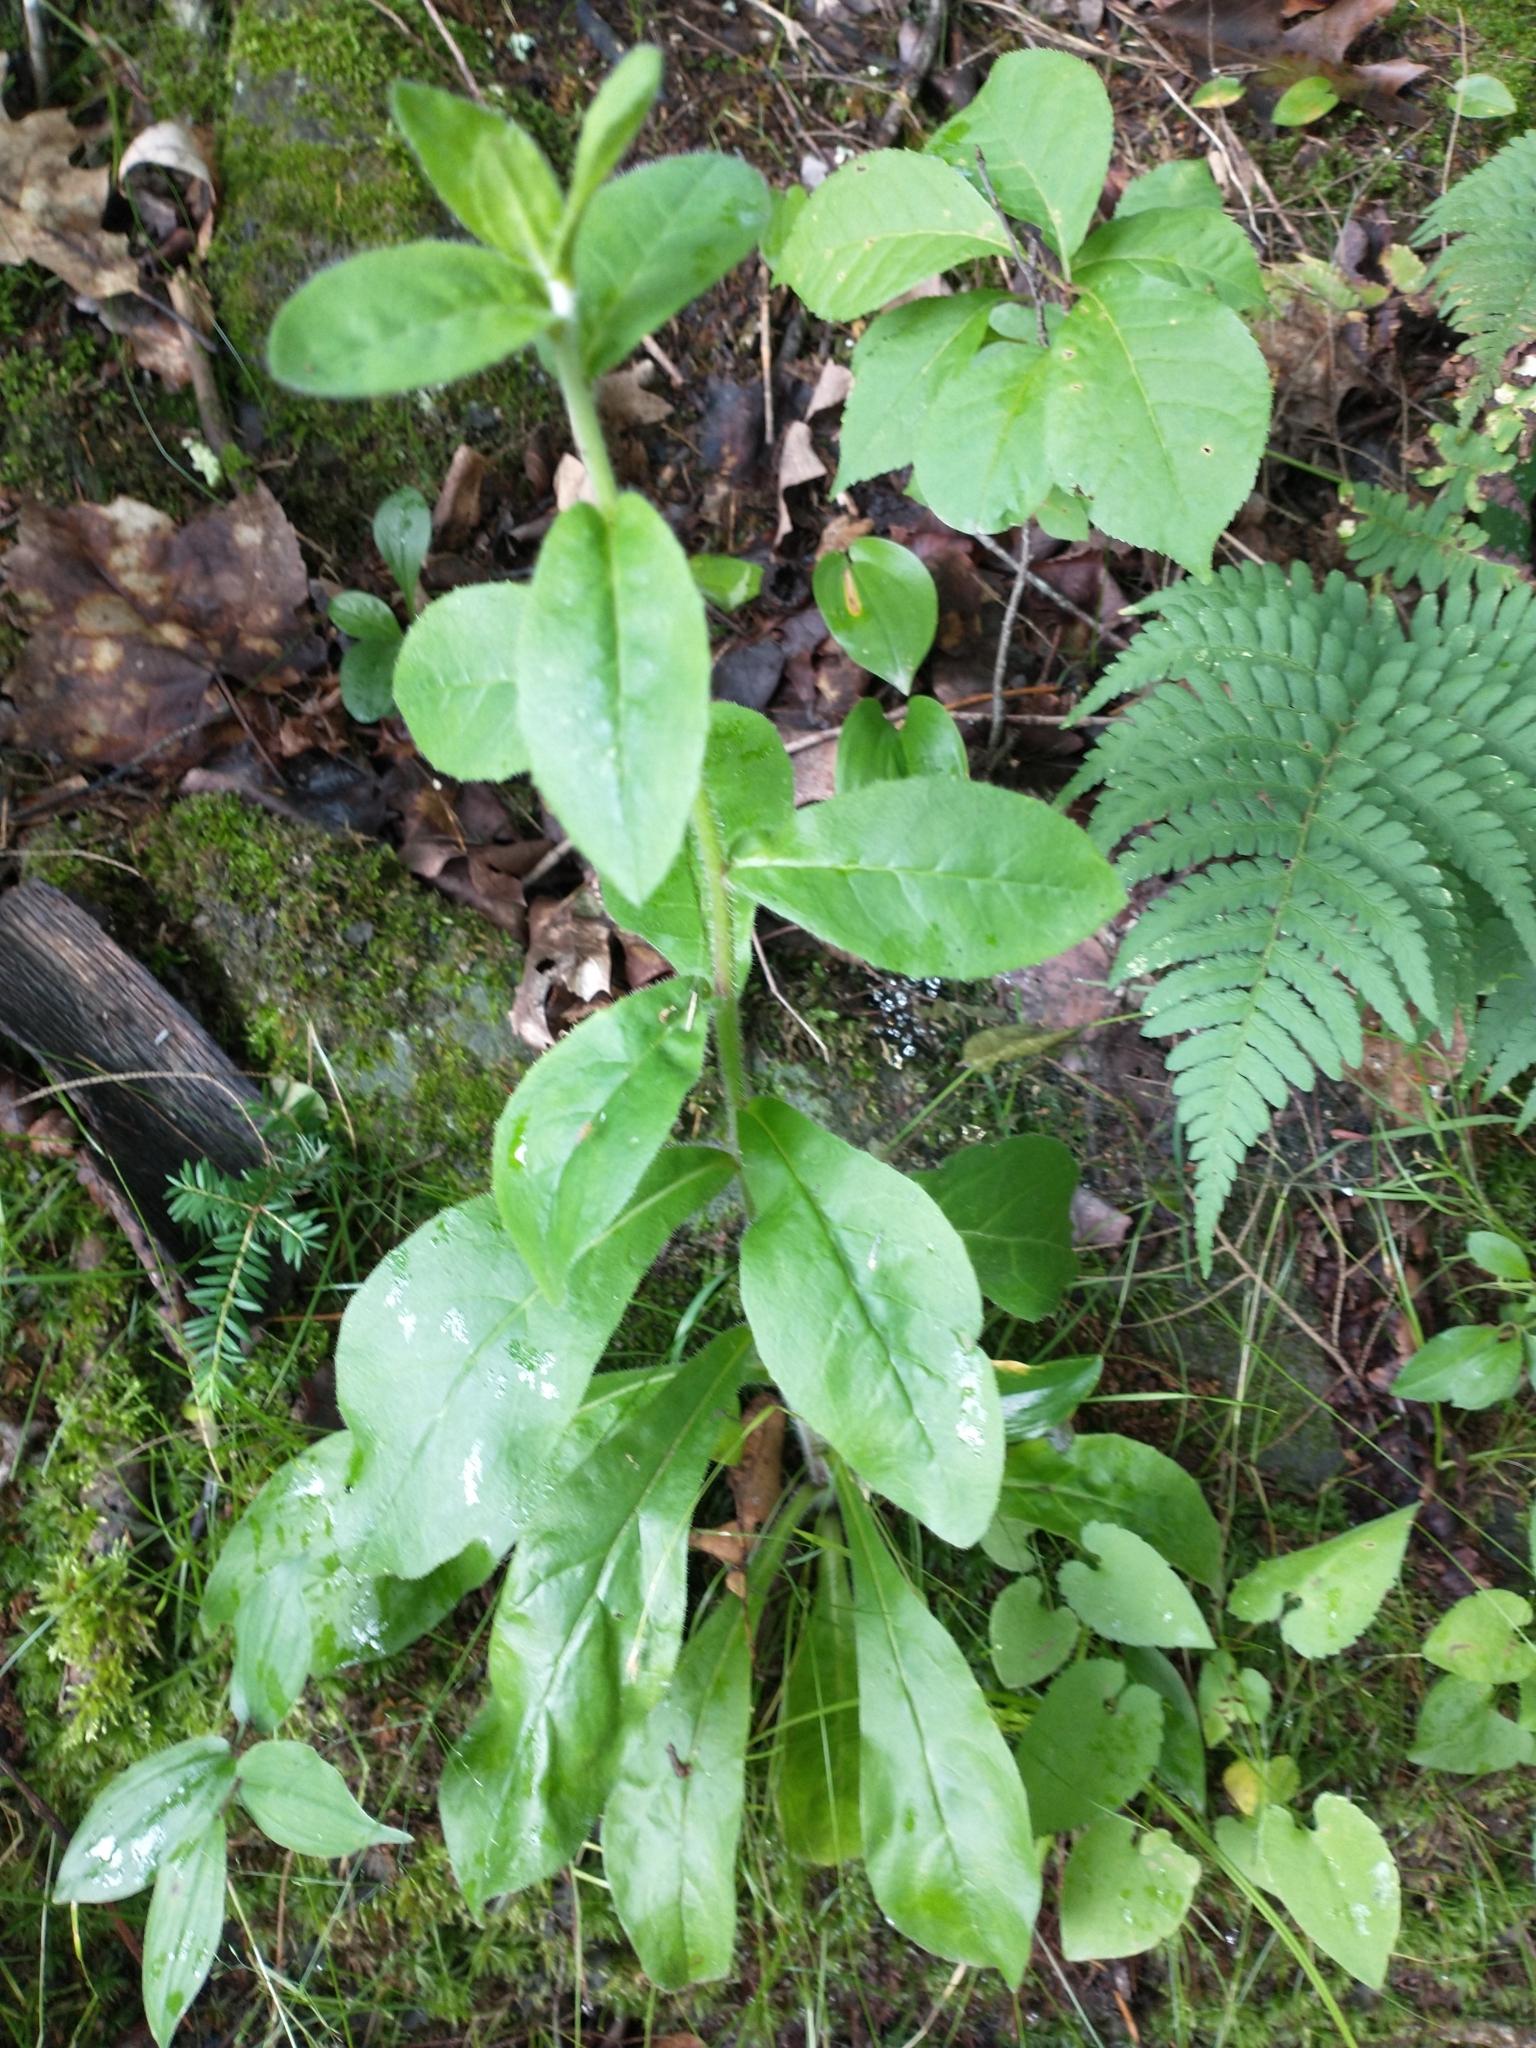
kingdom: Plantae
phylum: Tracheophyta
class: Magnoliopsida
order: Asterales
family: Asteraceae
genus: Hieracium
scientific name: Hieracium scabrum
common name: Rough hawkweed
